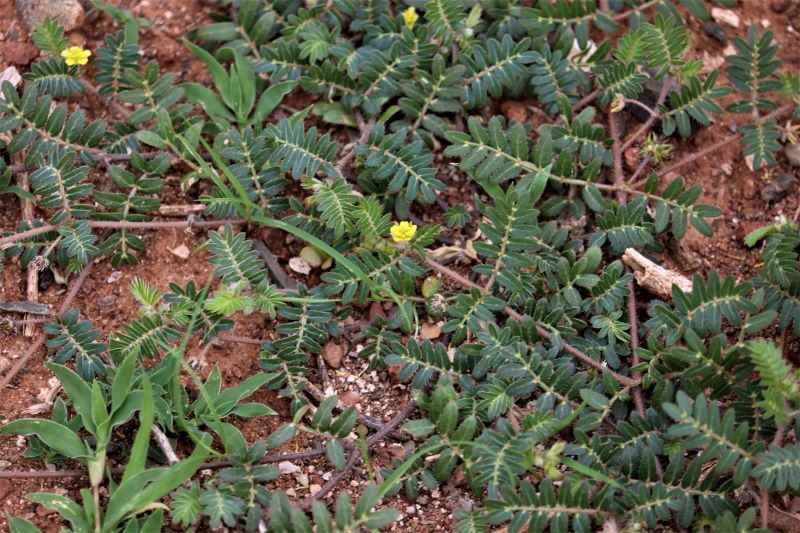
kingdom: Plantae
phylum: Tracheophyta
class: Magnoliopsida
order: Zygophyllales
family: Zygophyllaceae
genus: Tribulus
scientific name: Tribulus terrestris
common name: Puncturevine
